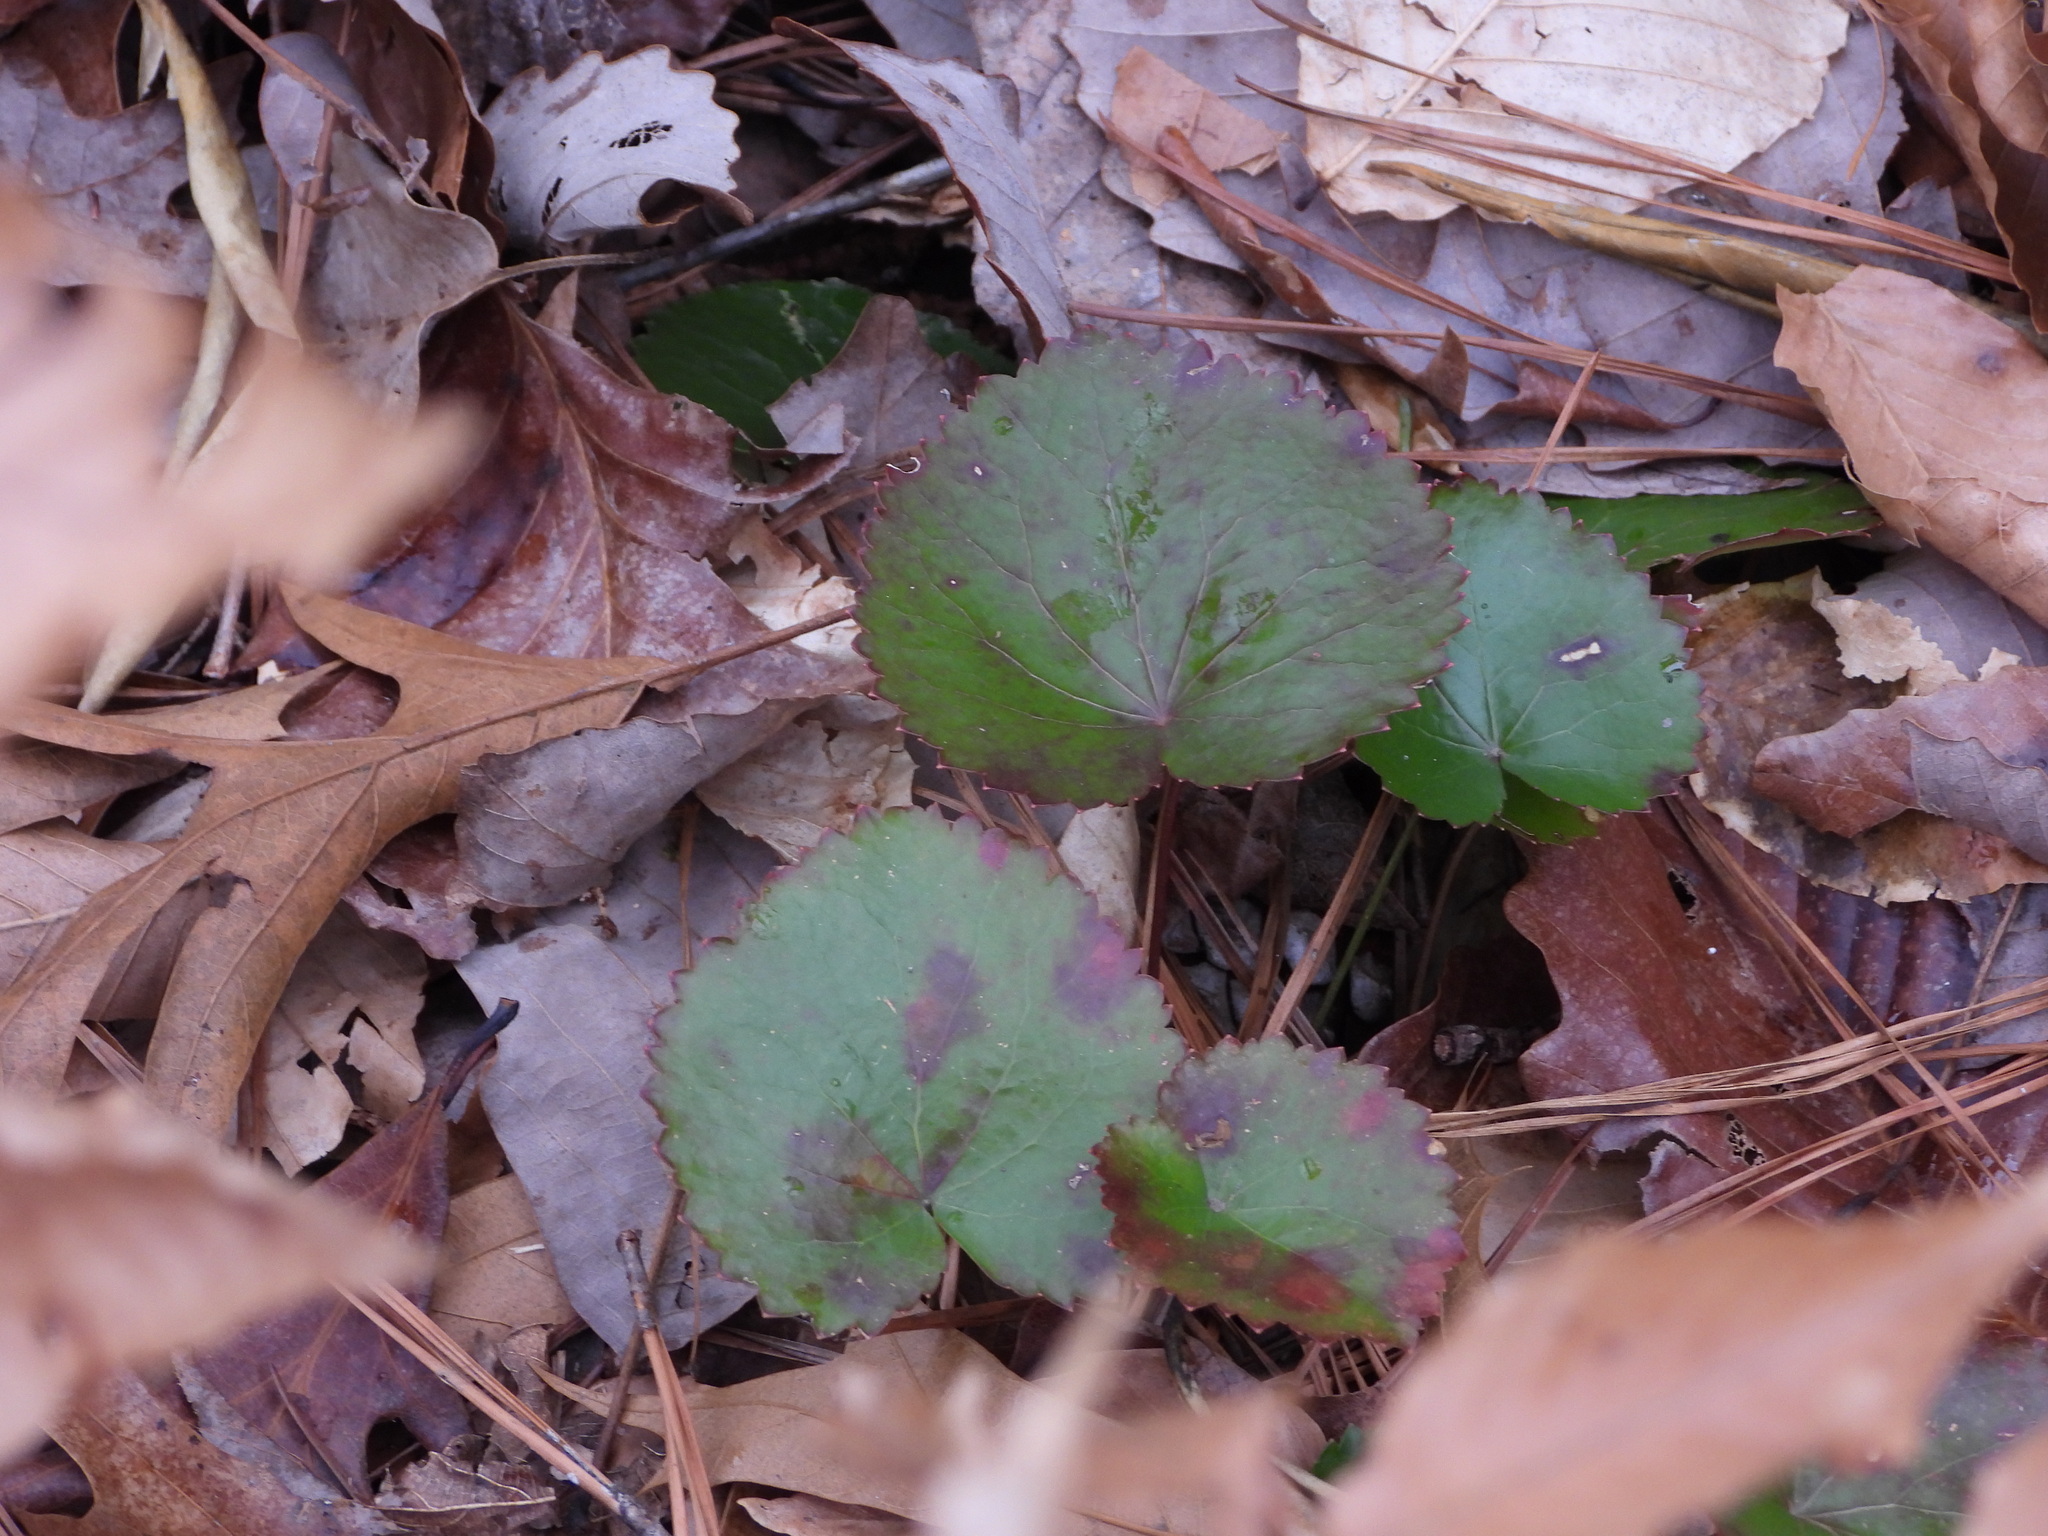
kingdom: Plantae
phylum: Tracheophyta
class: Magnoliopsida
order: Ericales
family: Diapensiaceae
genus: Galax
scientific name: Galax urceolata
